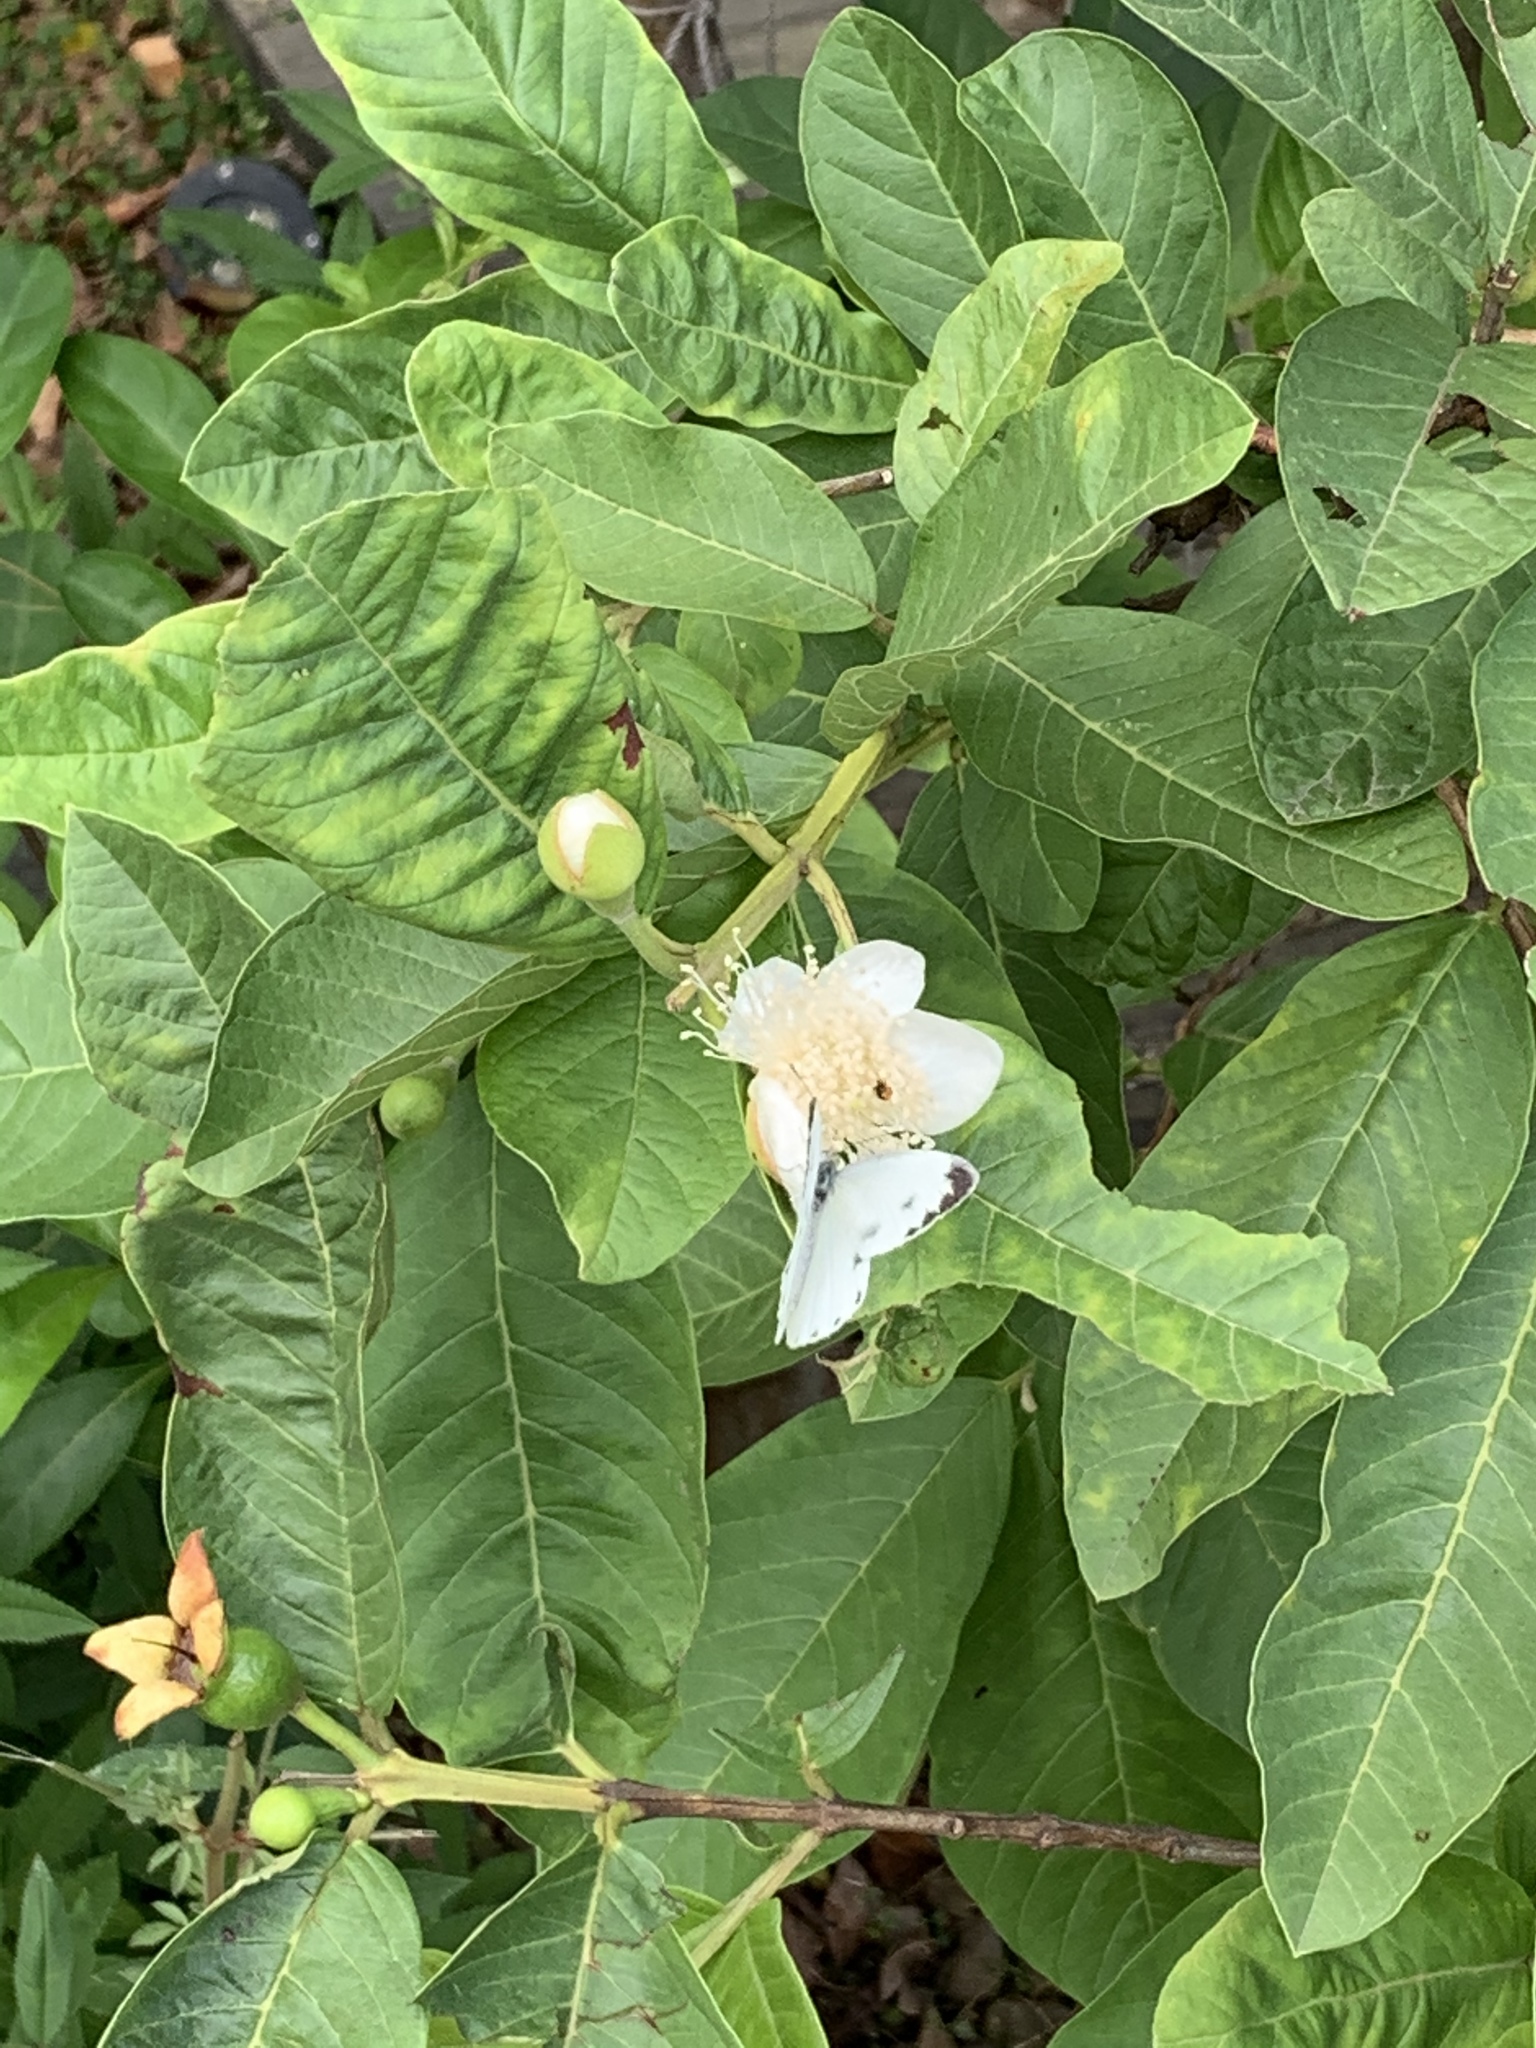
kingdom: Animalia
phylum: Arthropoda
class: Insecta
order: Lepidoptera
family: Pieridae
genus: Pieris
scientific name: Pieris canidia
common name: Indian cabbage white
